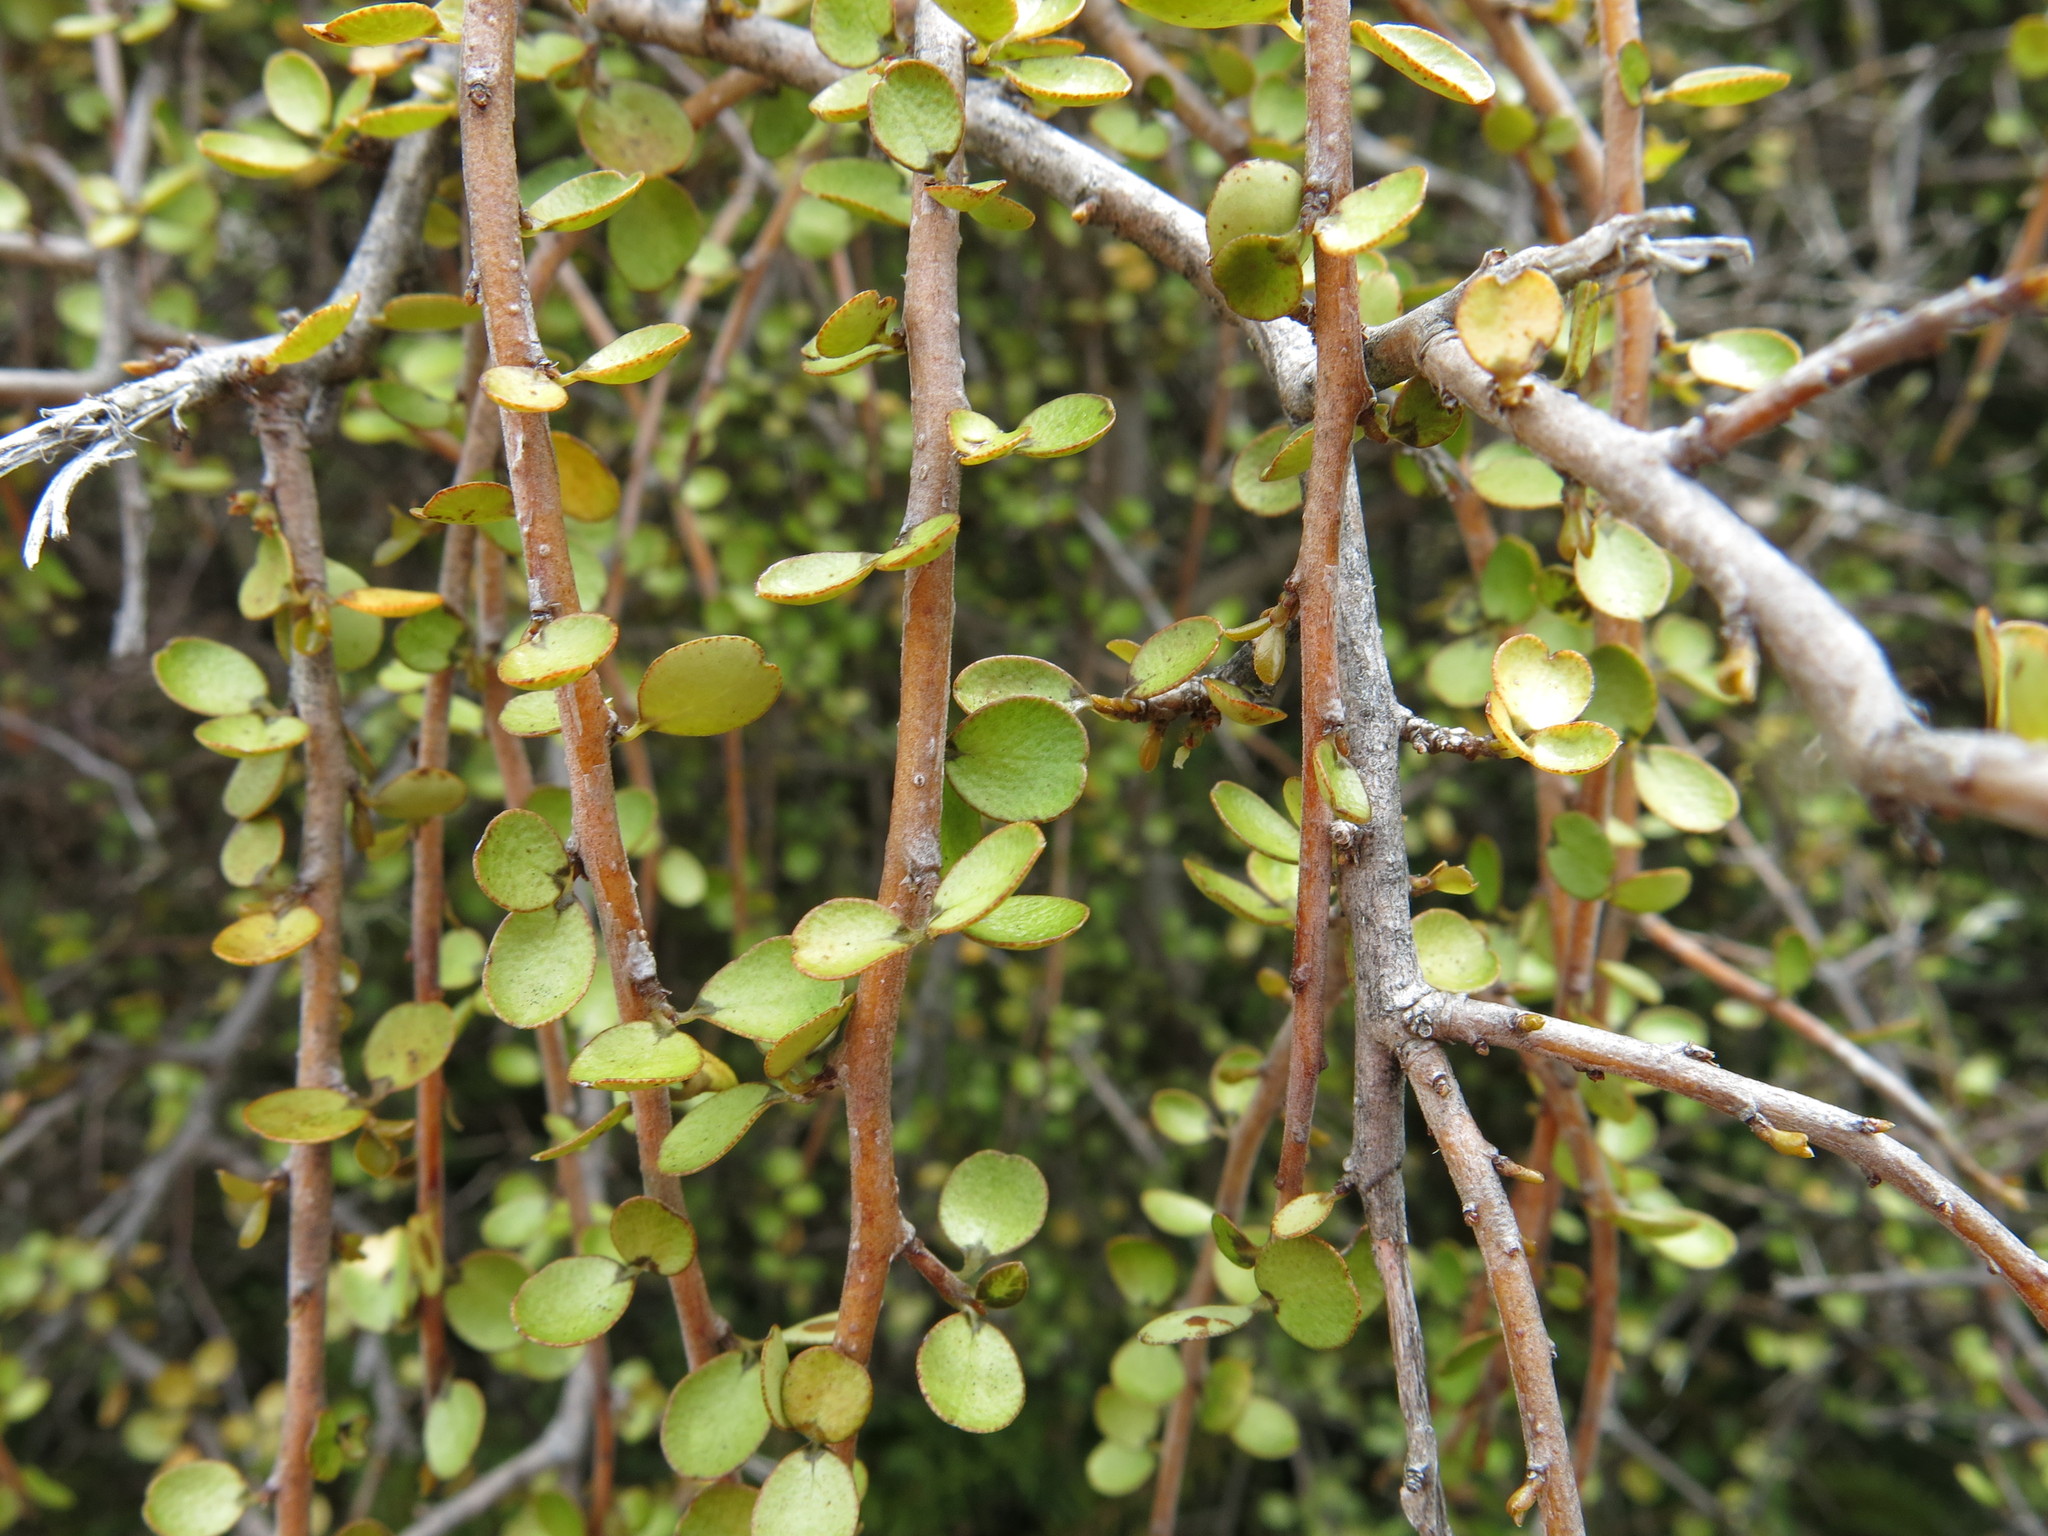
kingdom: Plantae
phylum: Tracheophyta
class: Magnoliopsida
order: Ericales
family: Primulaceae
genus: Myrsine
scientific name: Myrsine divaricata
